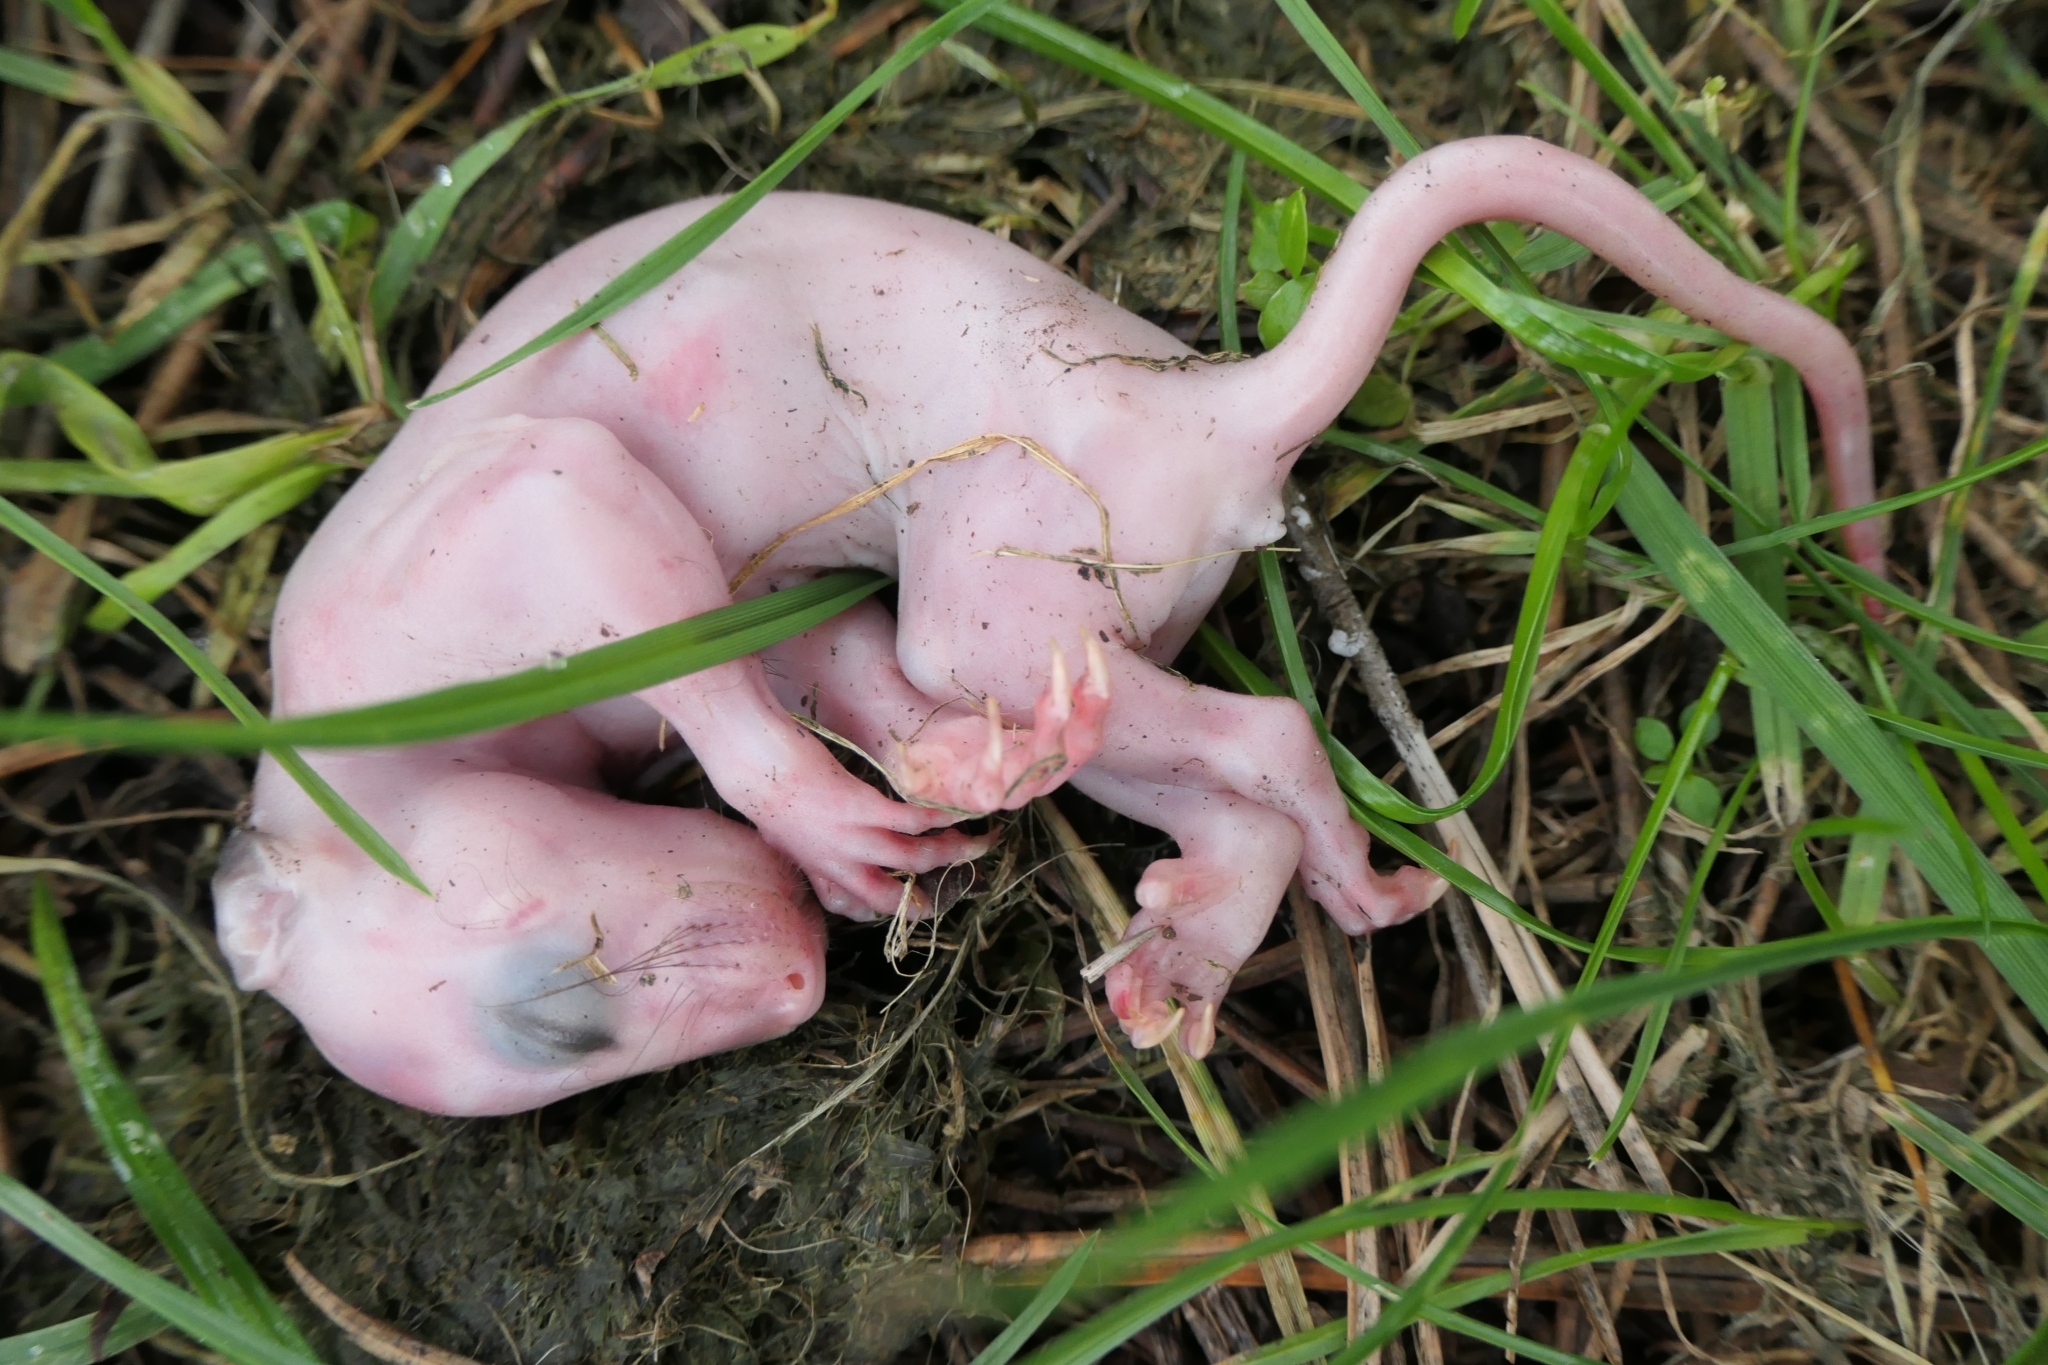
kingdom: Animalia
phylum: Chordata
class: Mammalia
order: Diprotodontia
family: Phalangeridae
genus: Trichosurus
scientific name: Trichosurus vulpecula
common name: Common brushtail
